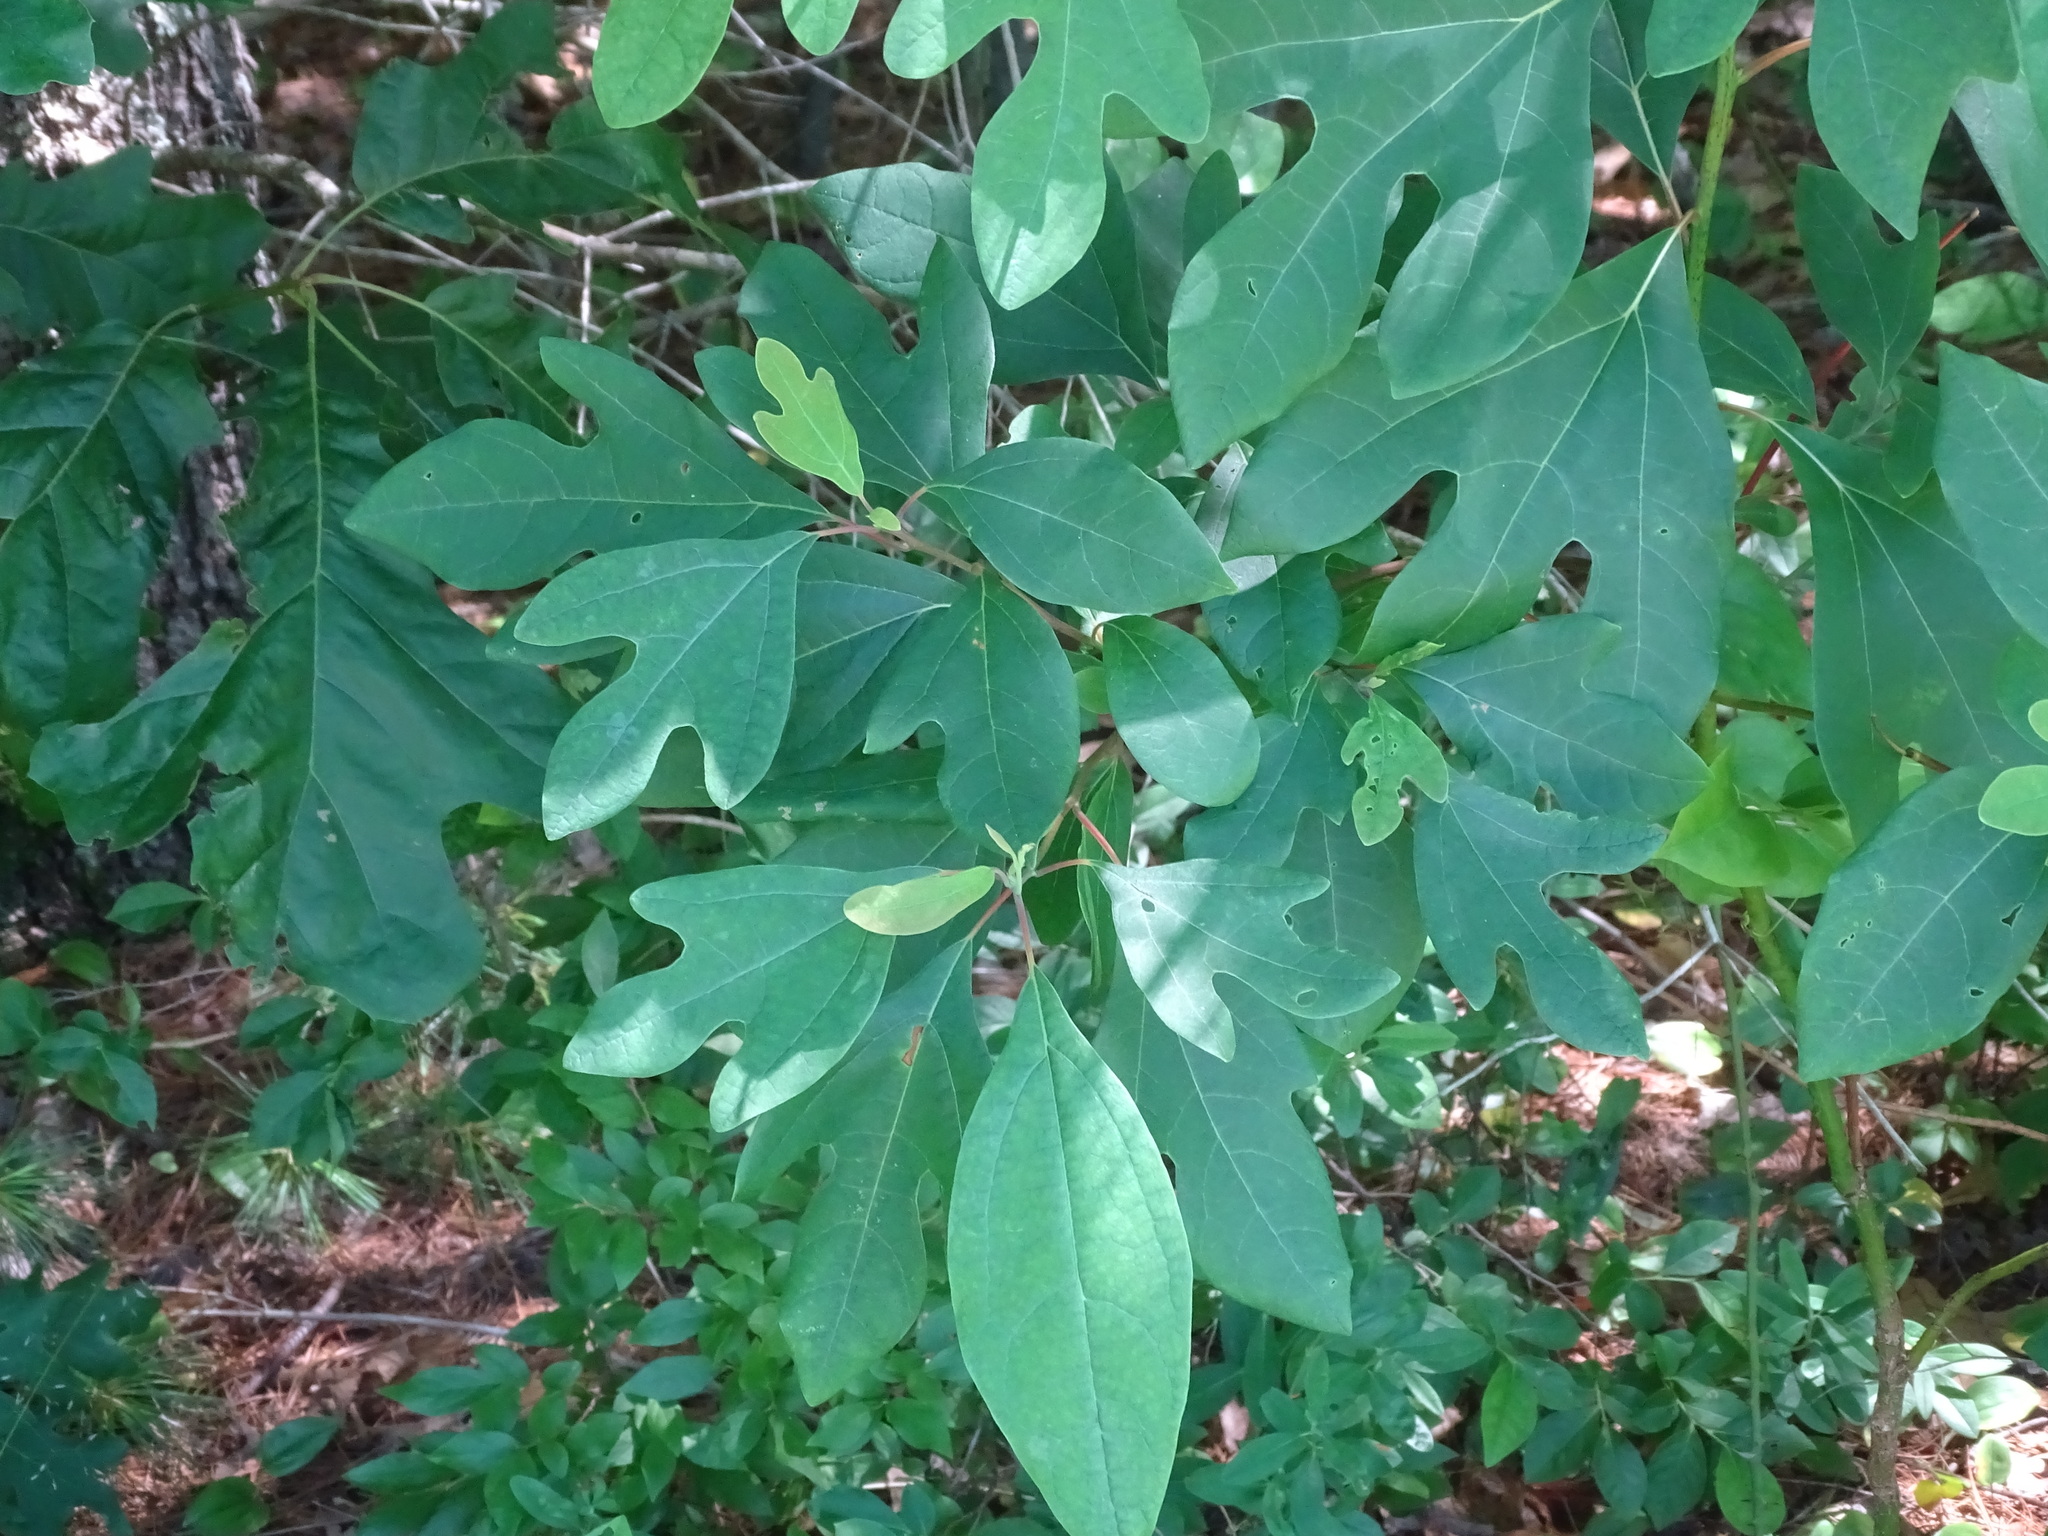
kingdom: Plantae
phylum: Tracheophyta
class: Magnoliopsida
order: Laurales
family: Lauraceae
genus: Sassafras
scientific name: Sassafras albidum
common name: Sassafras
